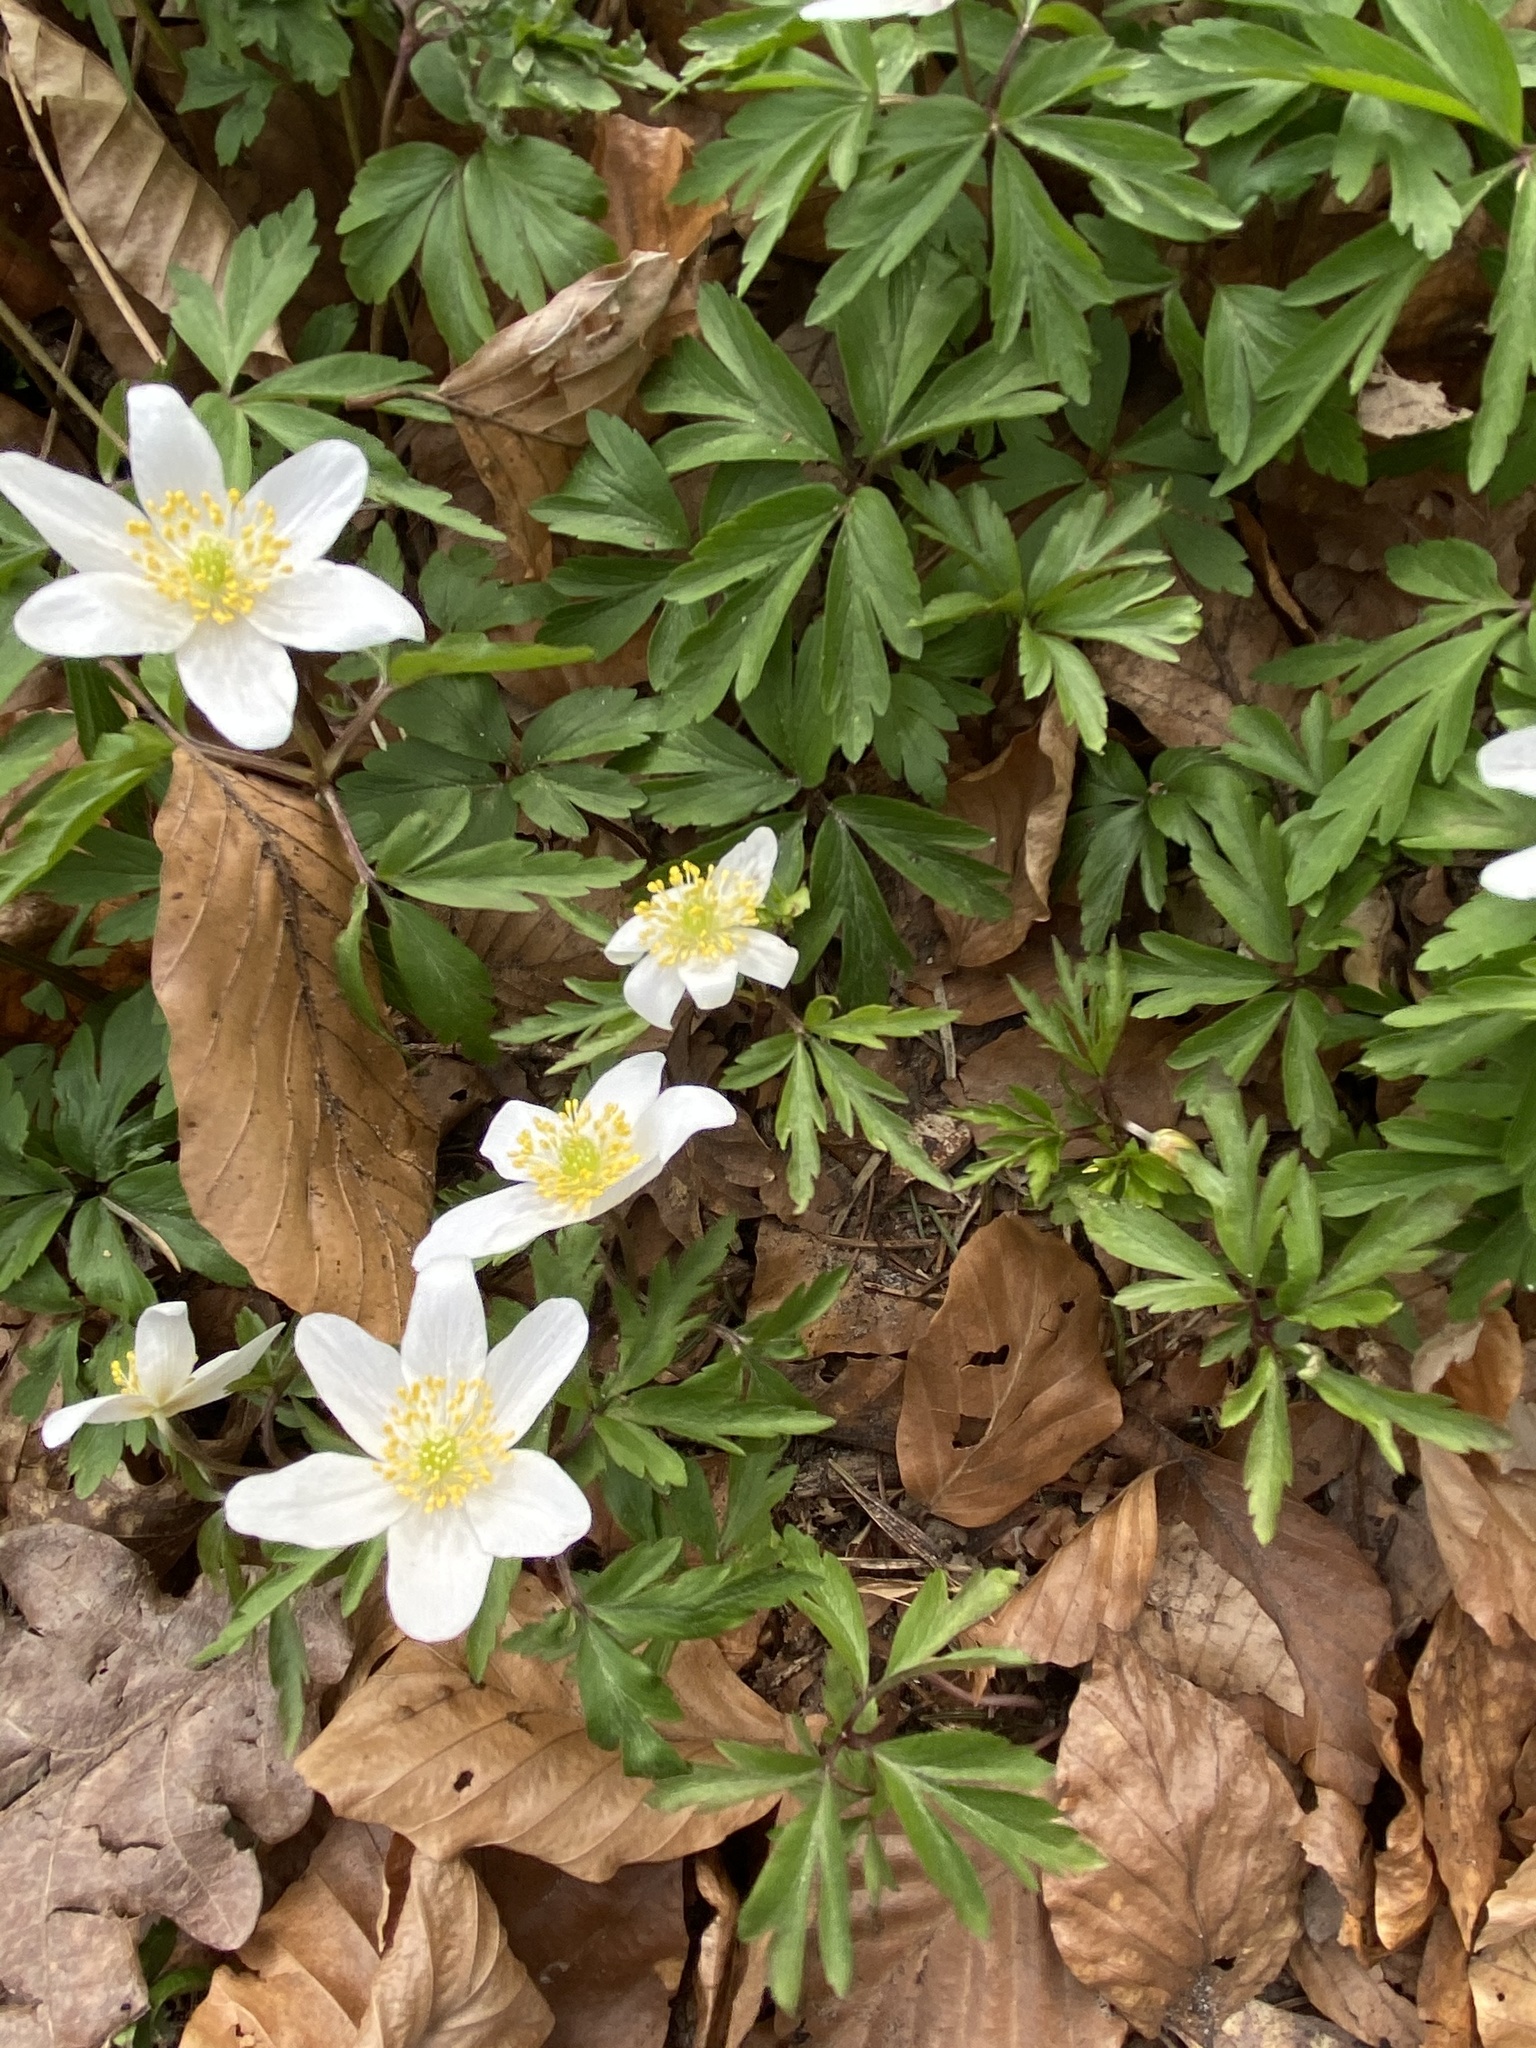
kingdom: Plantae
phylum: Tracheophyta
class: Magnoliopsida
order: Ranunculales
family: Ranunculaceae
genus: Anemone
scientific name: Anemone nemorosa
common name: Wood anemone
